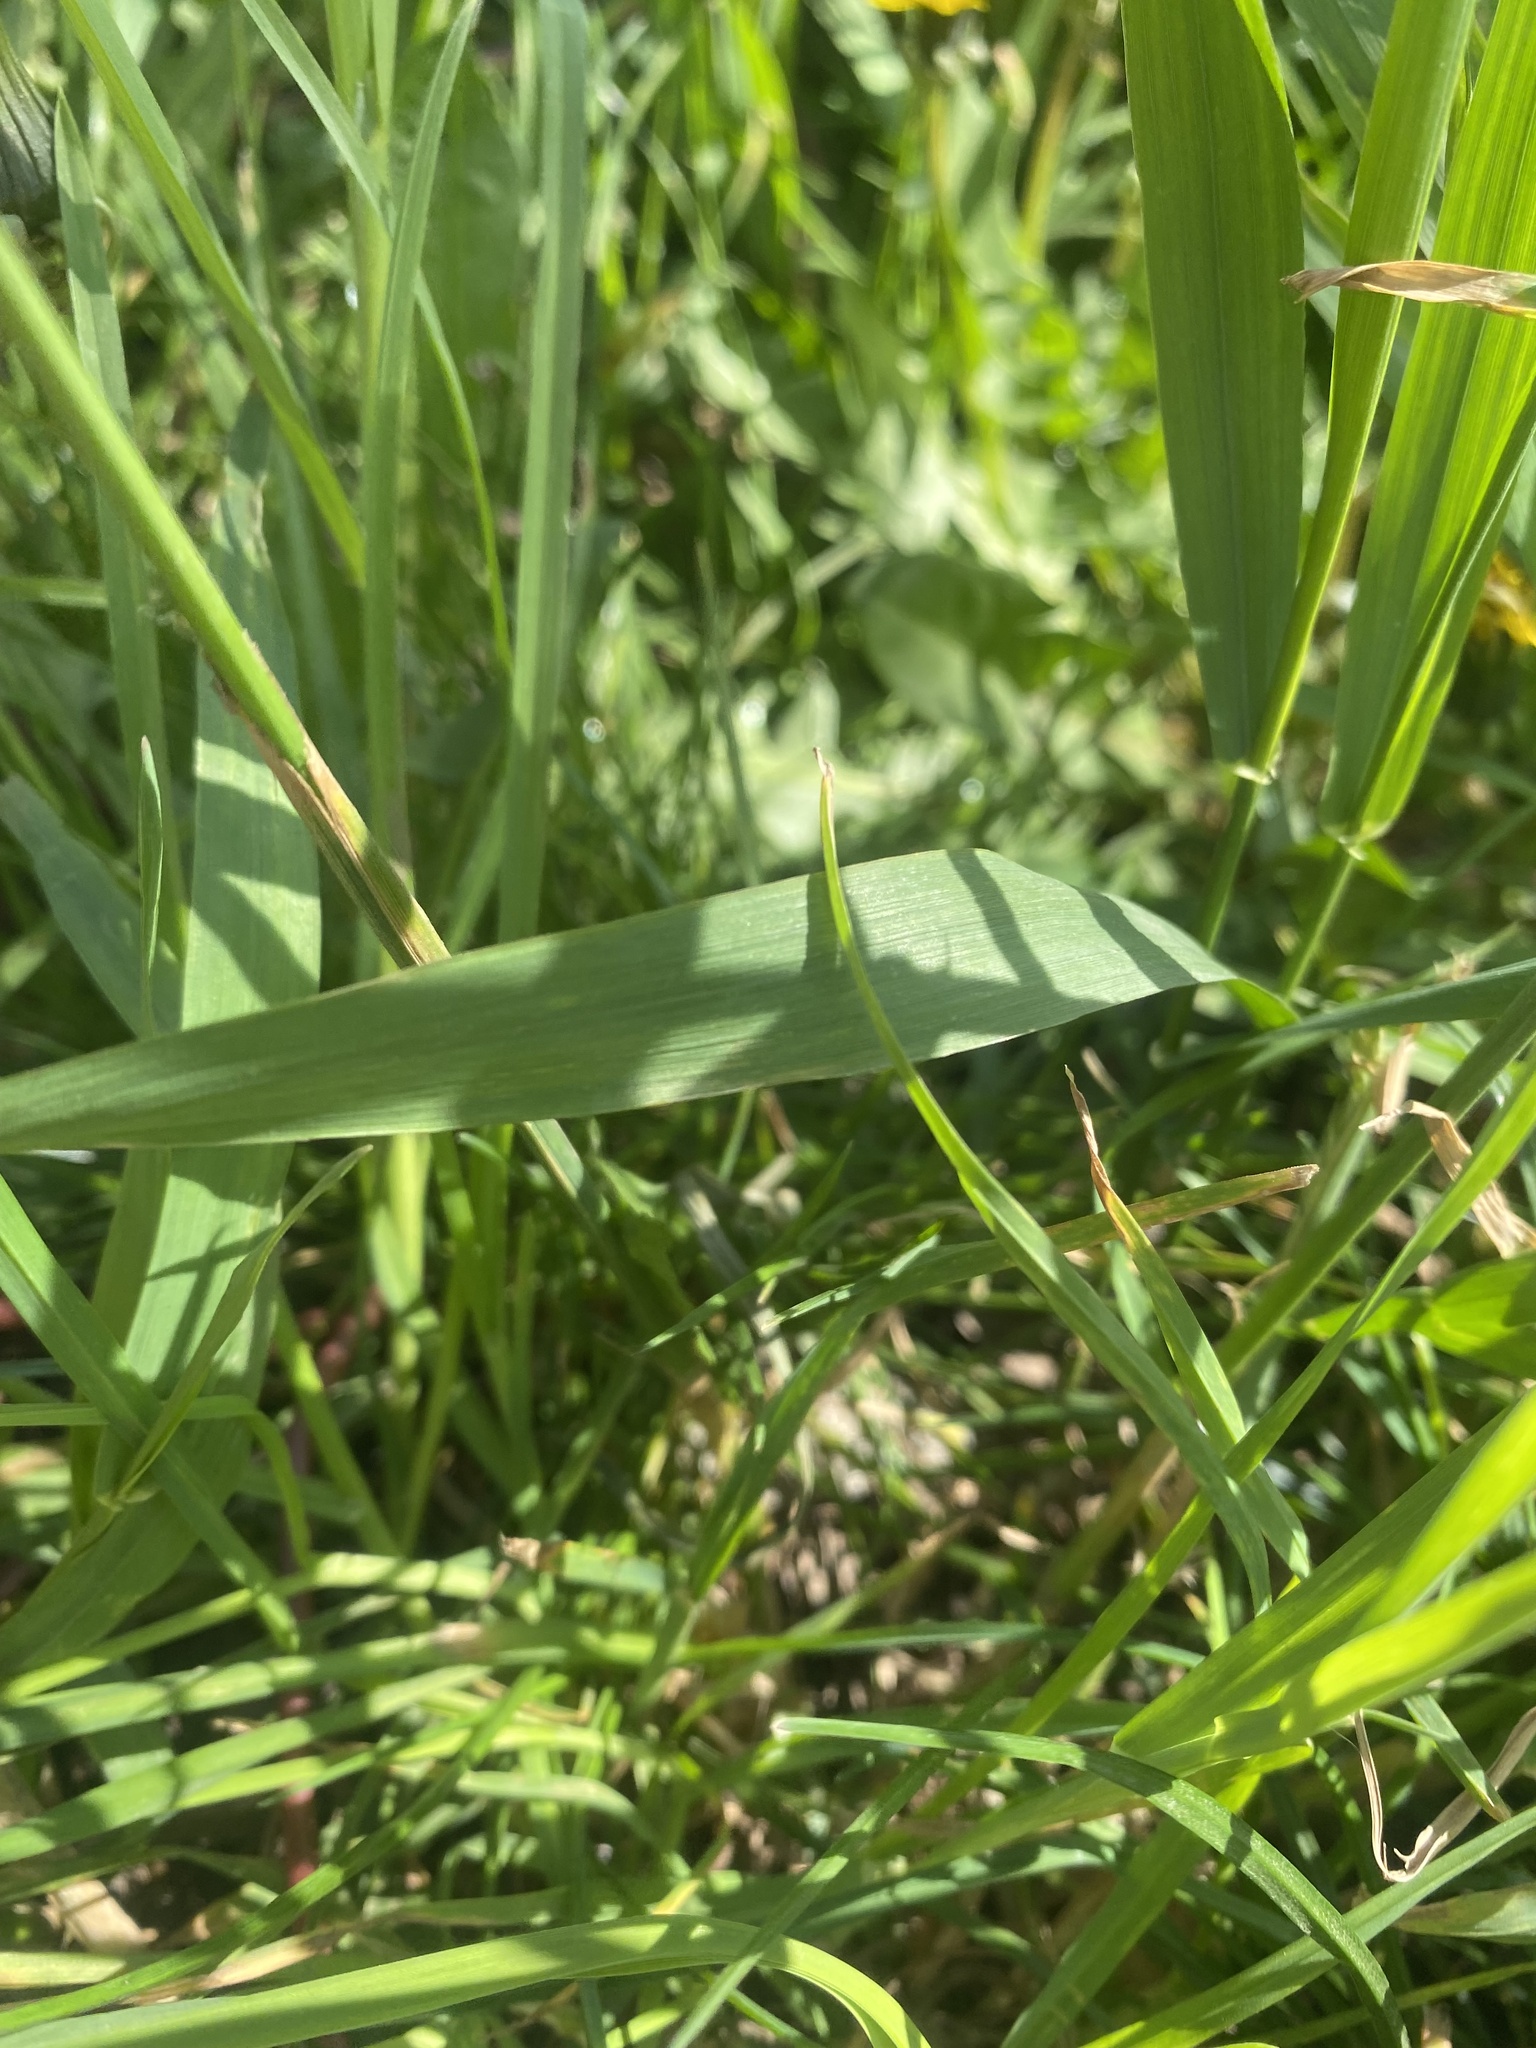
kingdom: Plantae
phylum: Tracheophyta
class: Liliopsida
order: Poales
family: Poaceae
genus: Dactylis
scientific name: Dactylis glomerata
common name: Orchardgrass
